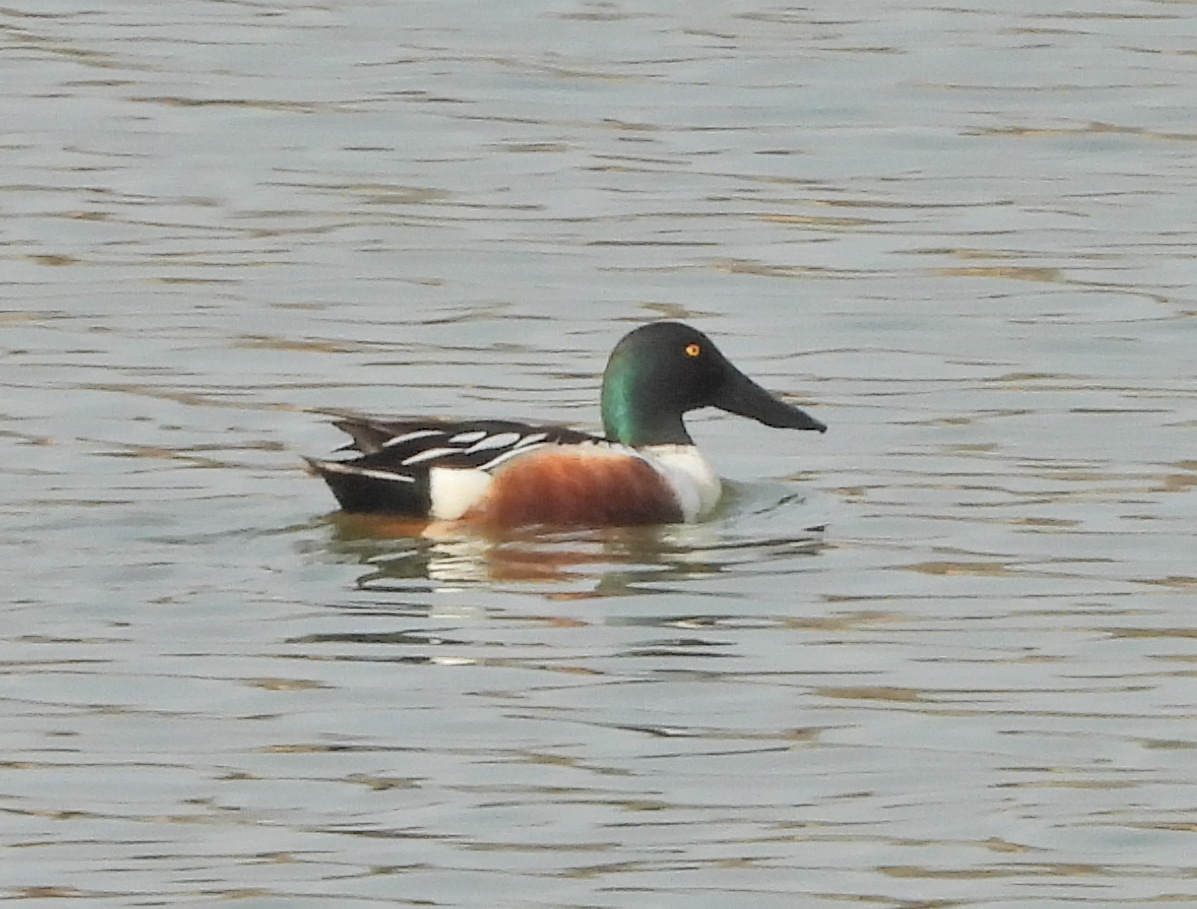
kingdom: Animalia
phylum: Chordata
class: Aves
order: Anseriformes
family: Anatidae
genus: Spatula
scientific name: Spatula clypeata
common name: Northern shoveler
